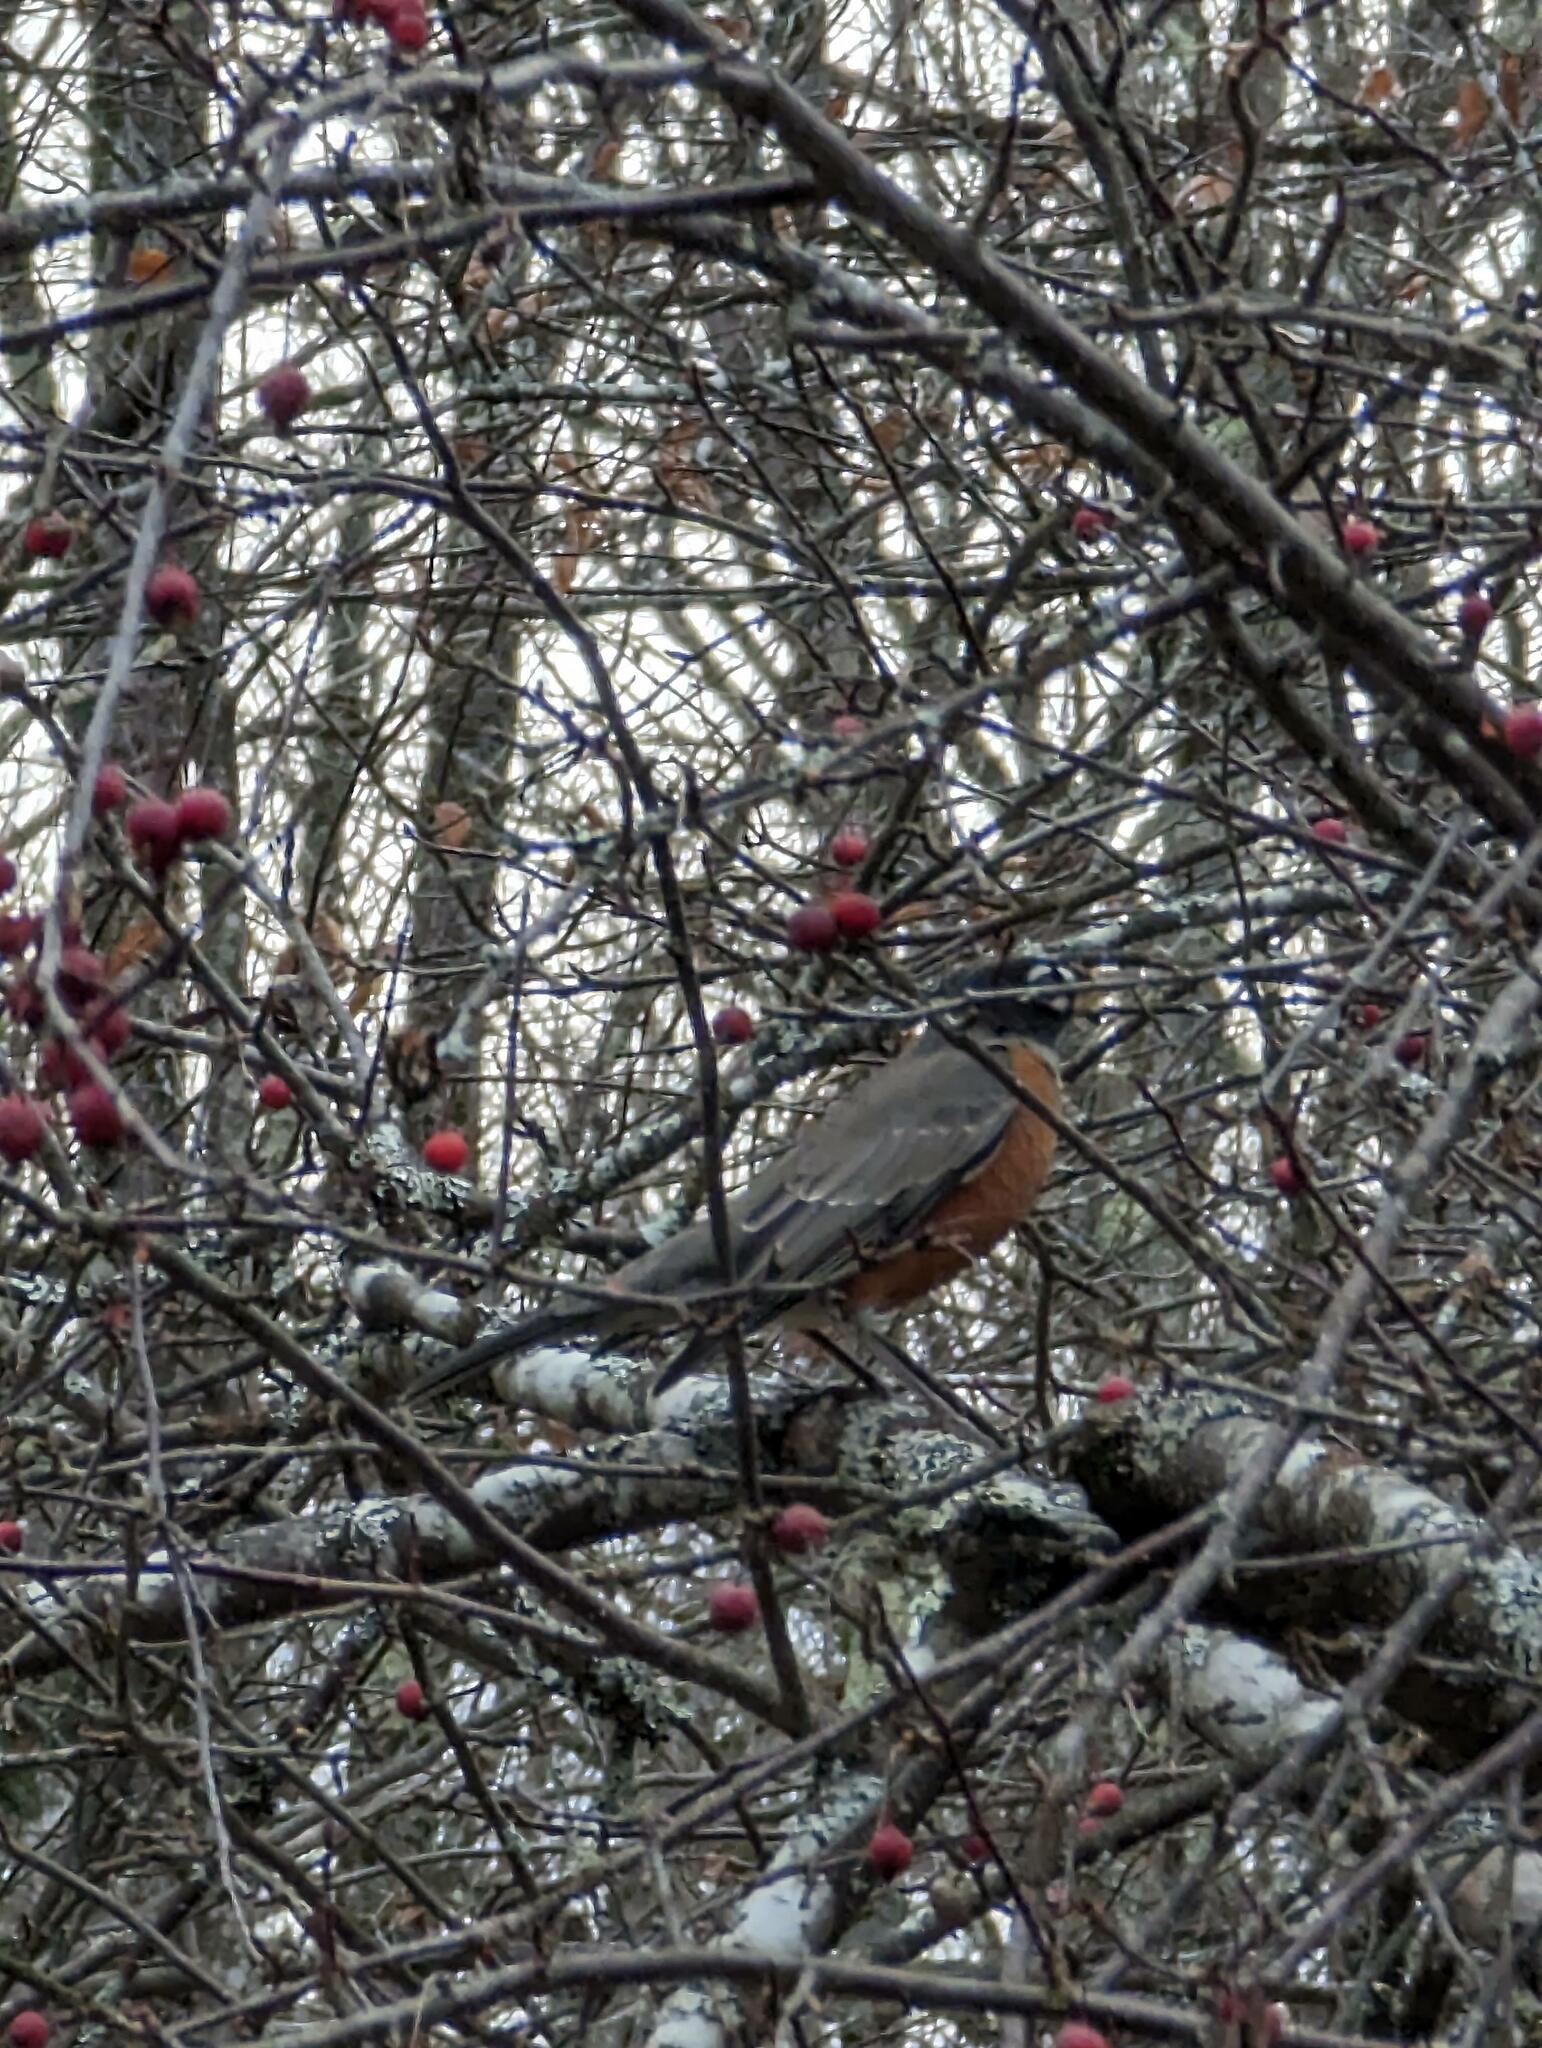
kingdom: Animalia
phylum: Chordata
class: Aves
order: Passeriformes
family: Turdidae
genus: Turdus
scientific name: Turdus migratorius
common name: American robin
